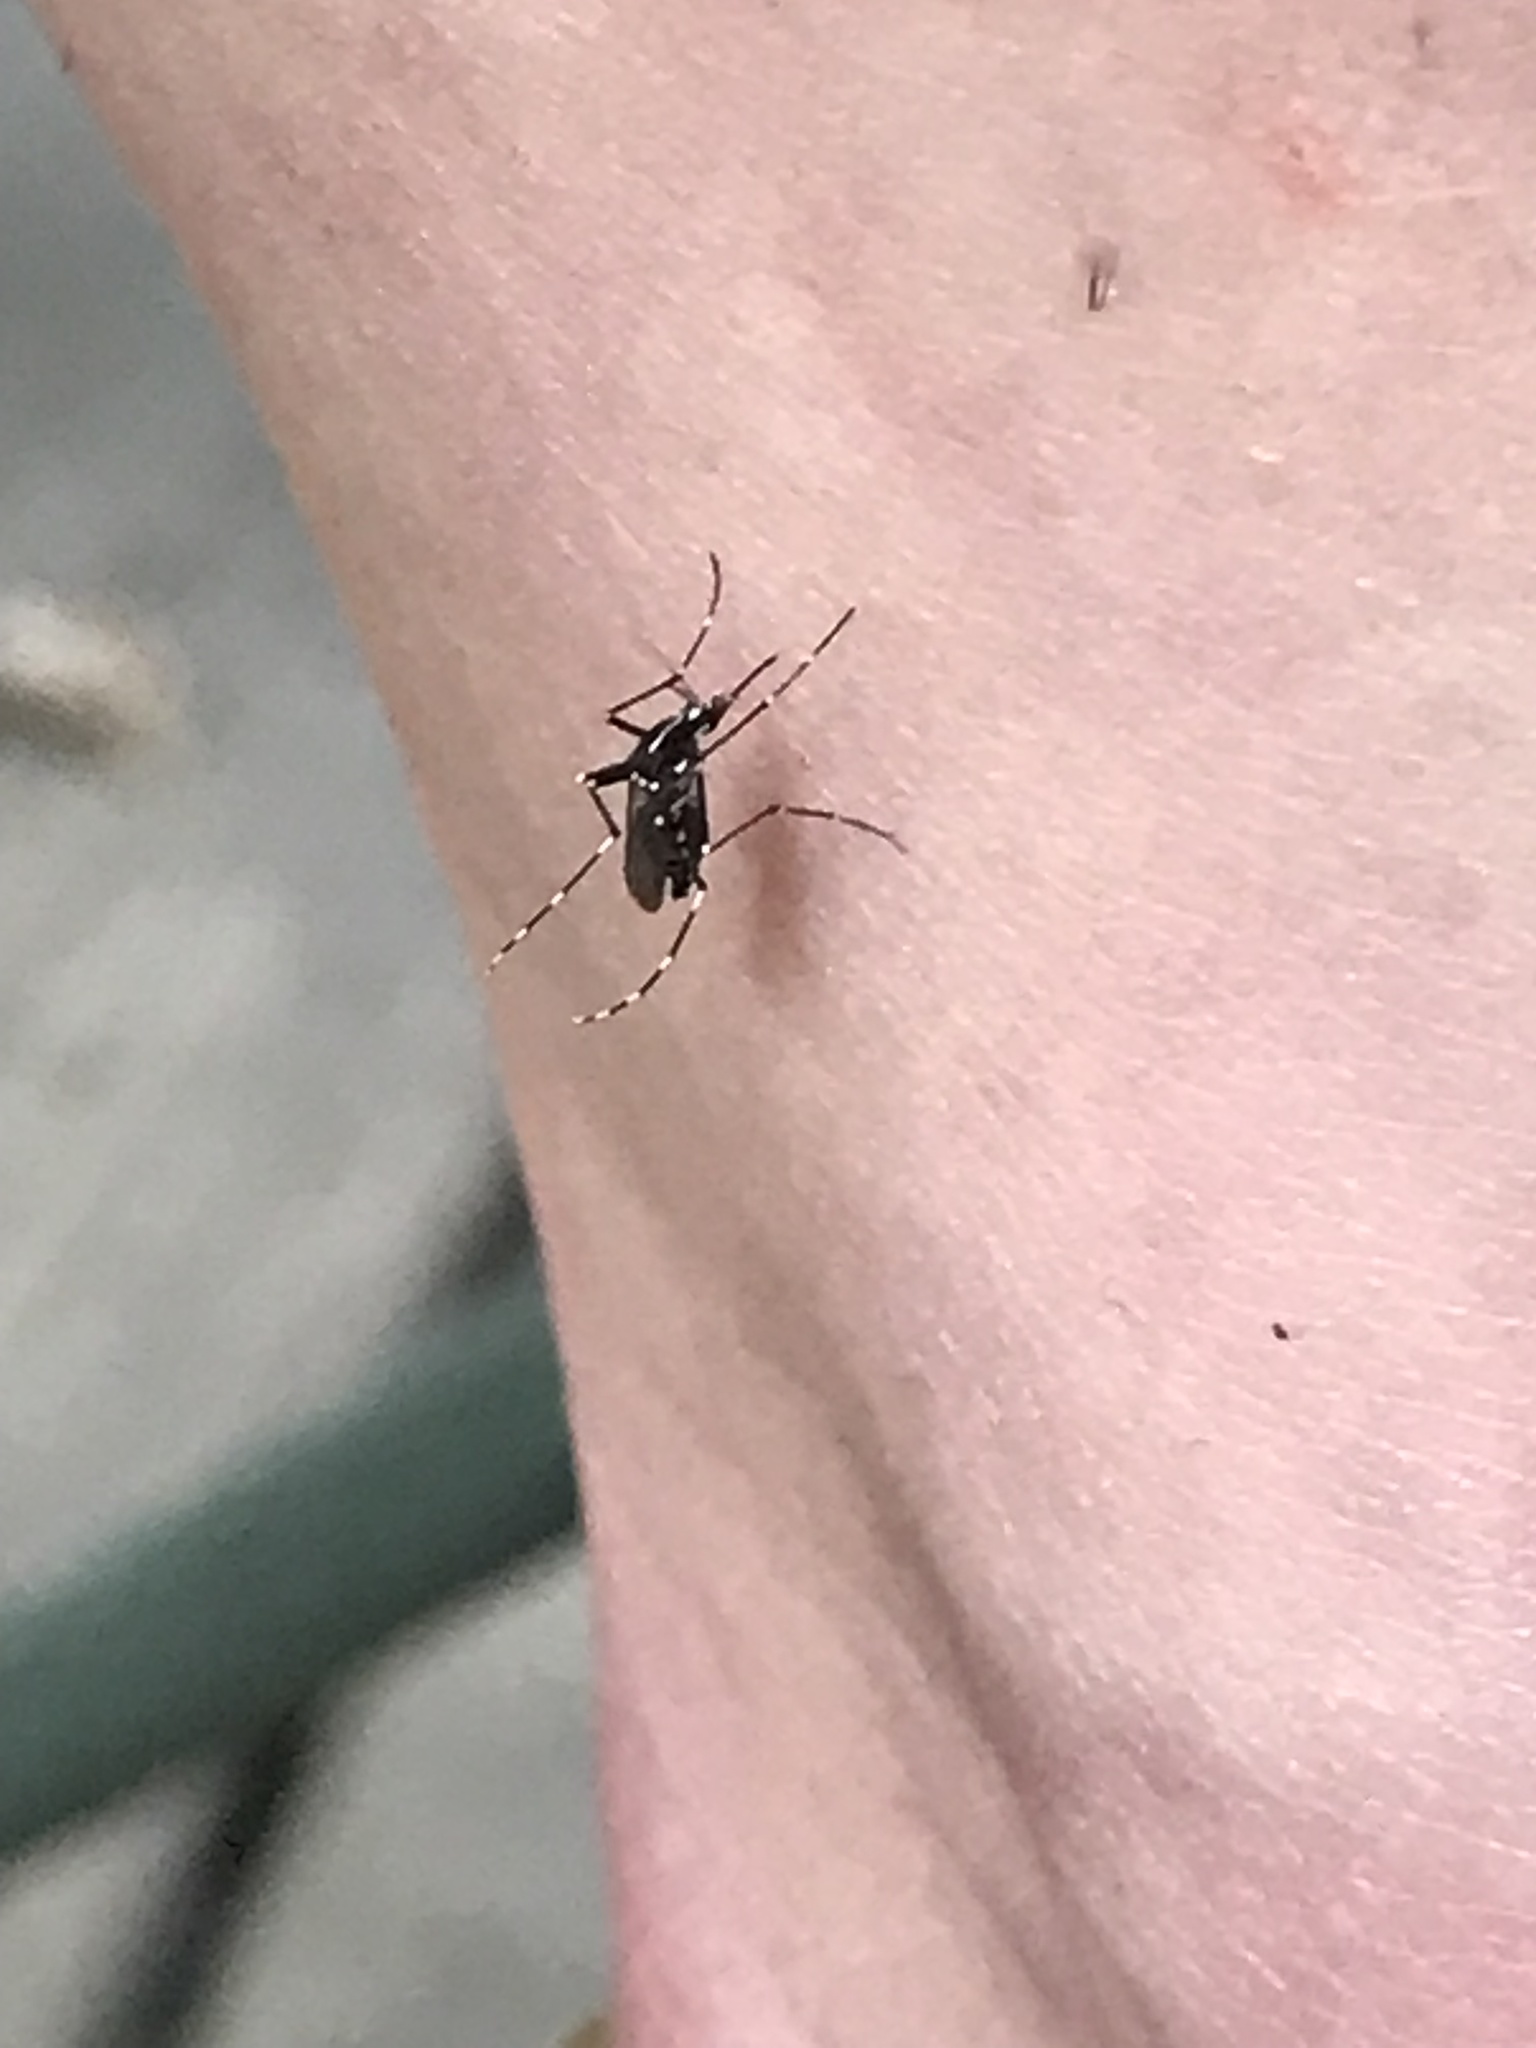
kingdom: Animalia
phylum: Arthropoda
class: Insecta
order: Diptera
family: Culicidae
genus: Aedes
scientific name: Aedes albopictus
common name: Tiger mosquito
